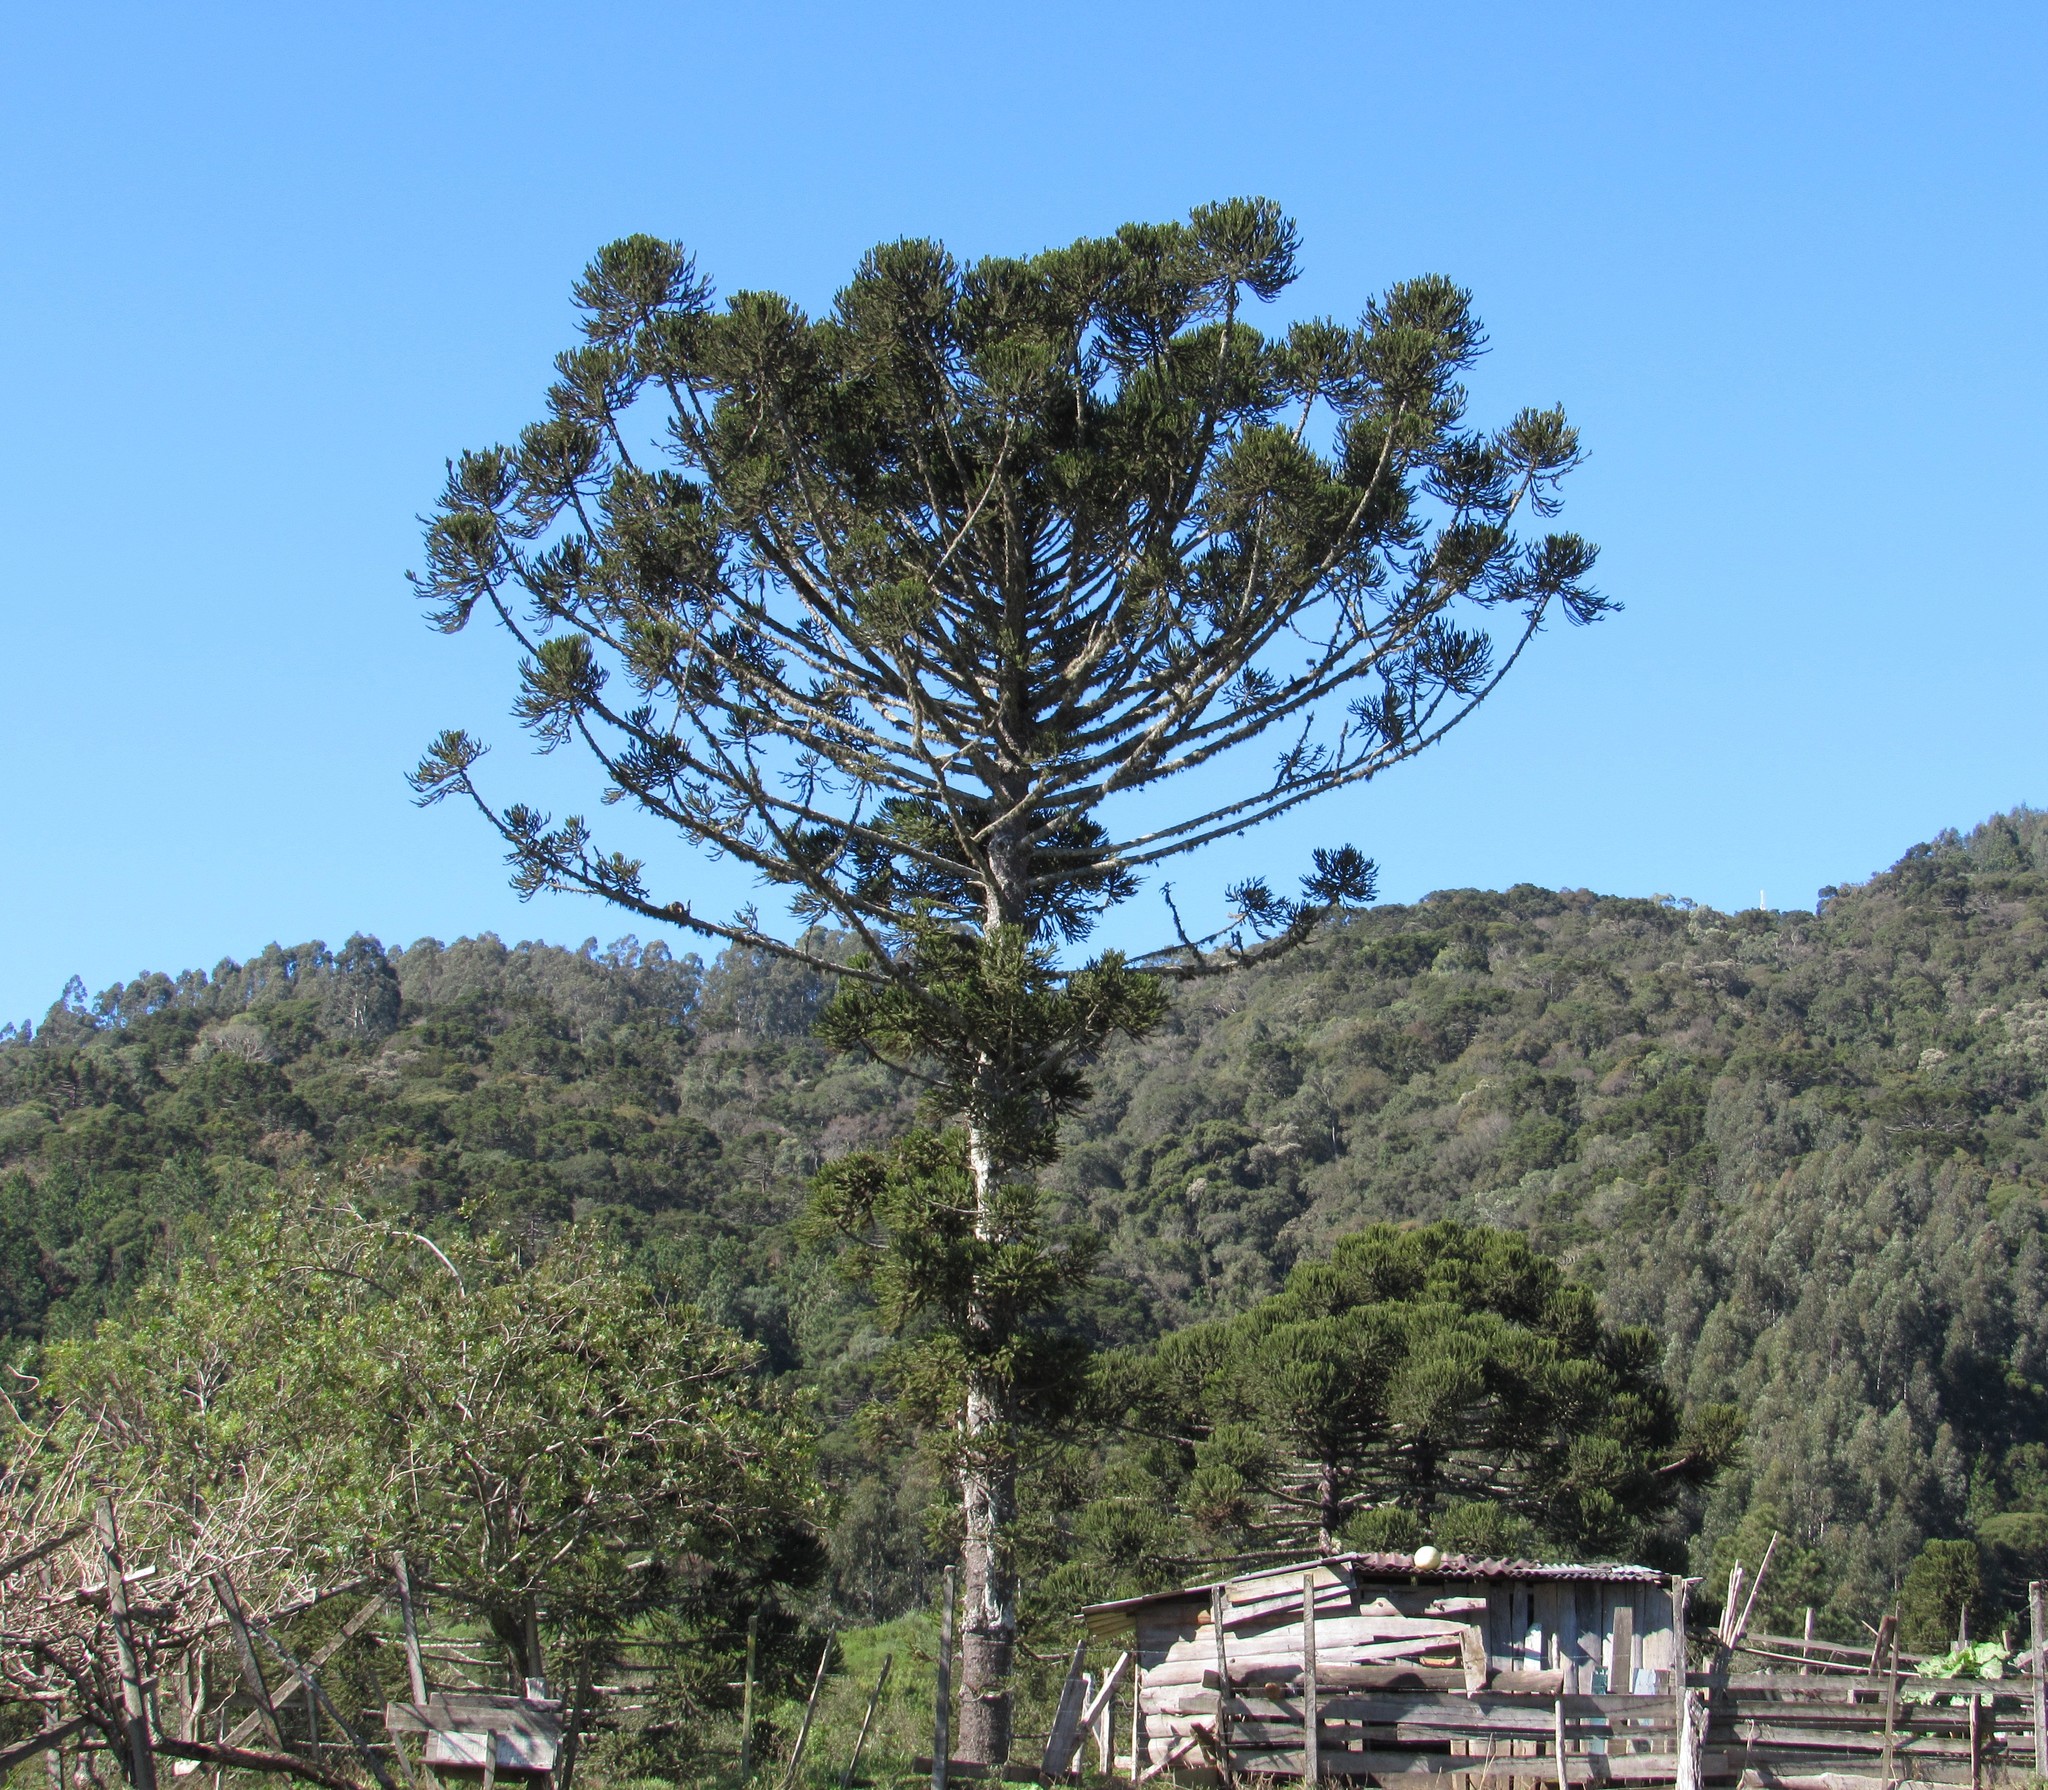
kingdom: Plantae
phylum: Tracheophyta
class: Pinopsida
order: Pinales
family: Araucariaceae
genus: Araucaria
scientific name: Araucaria angustifolia
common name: Candelabra tree
